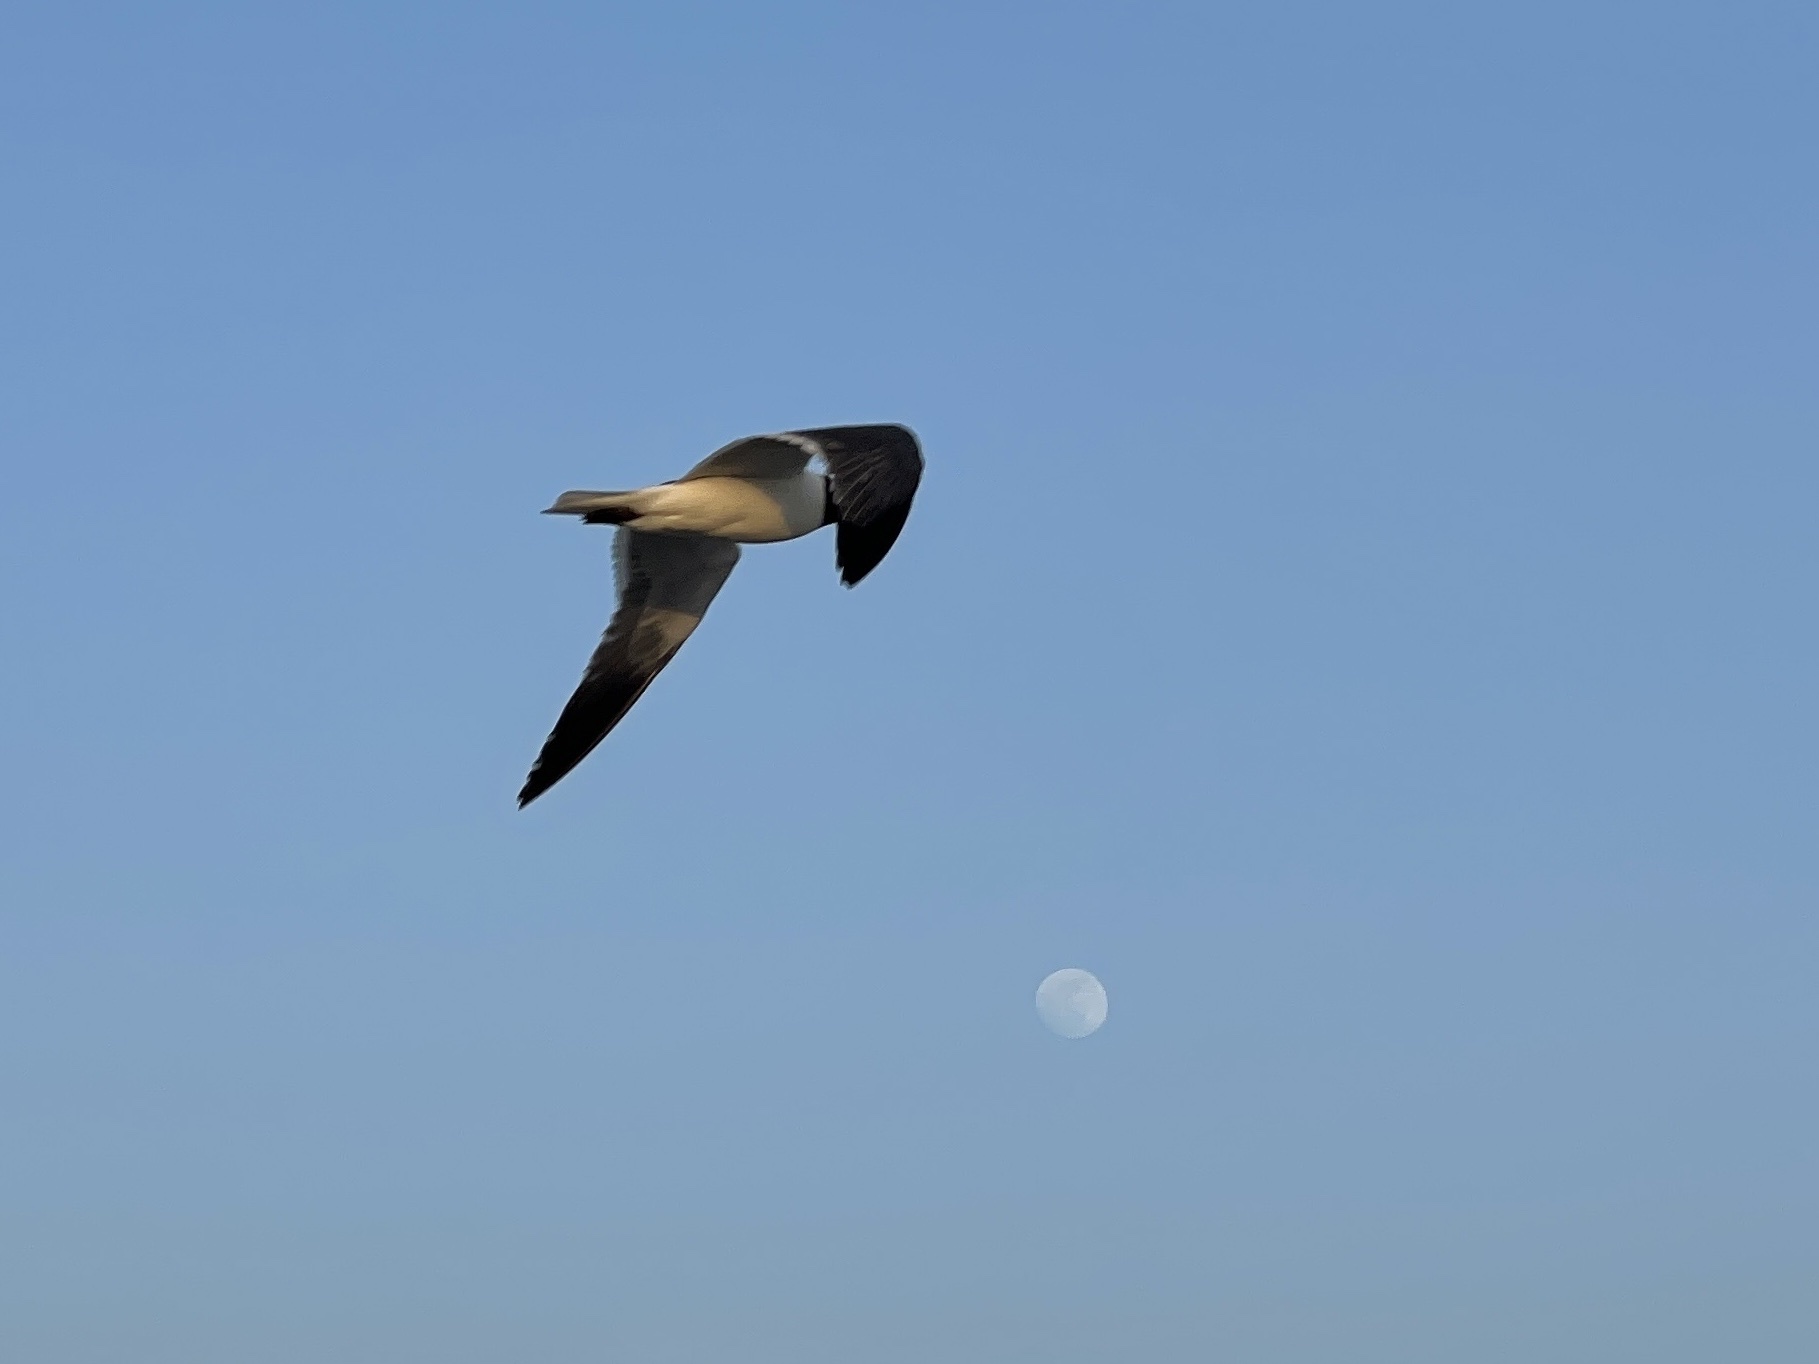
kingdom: Animalia
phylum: Chordata
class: Aves
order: Charadriiformes
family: Laridae
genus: Leucophaeus
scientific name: Leucophaeus atricilla
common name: Laughing gull
